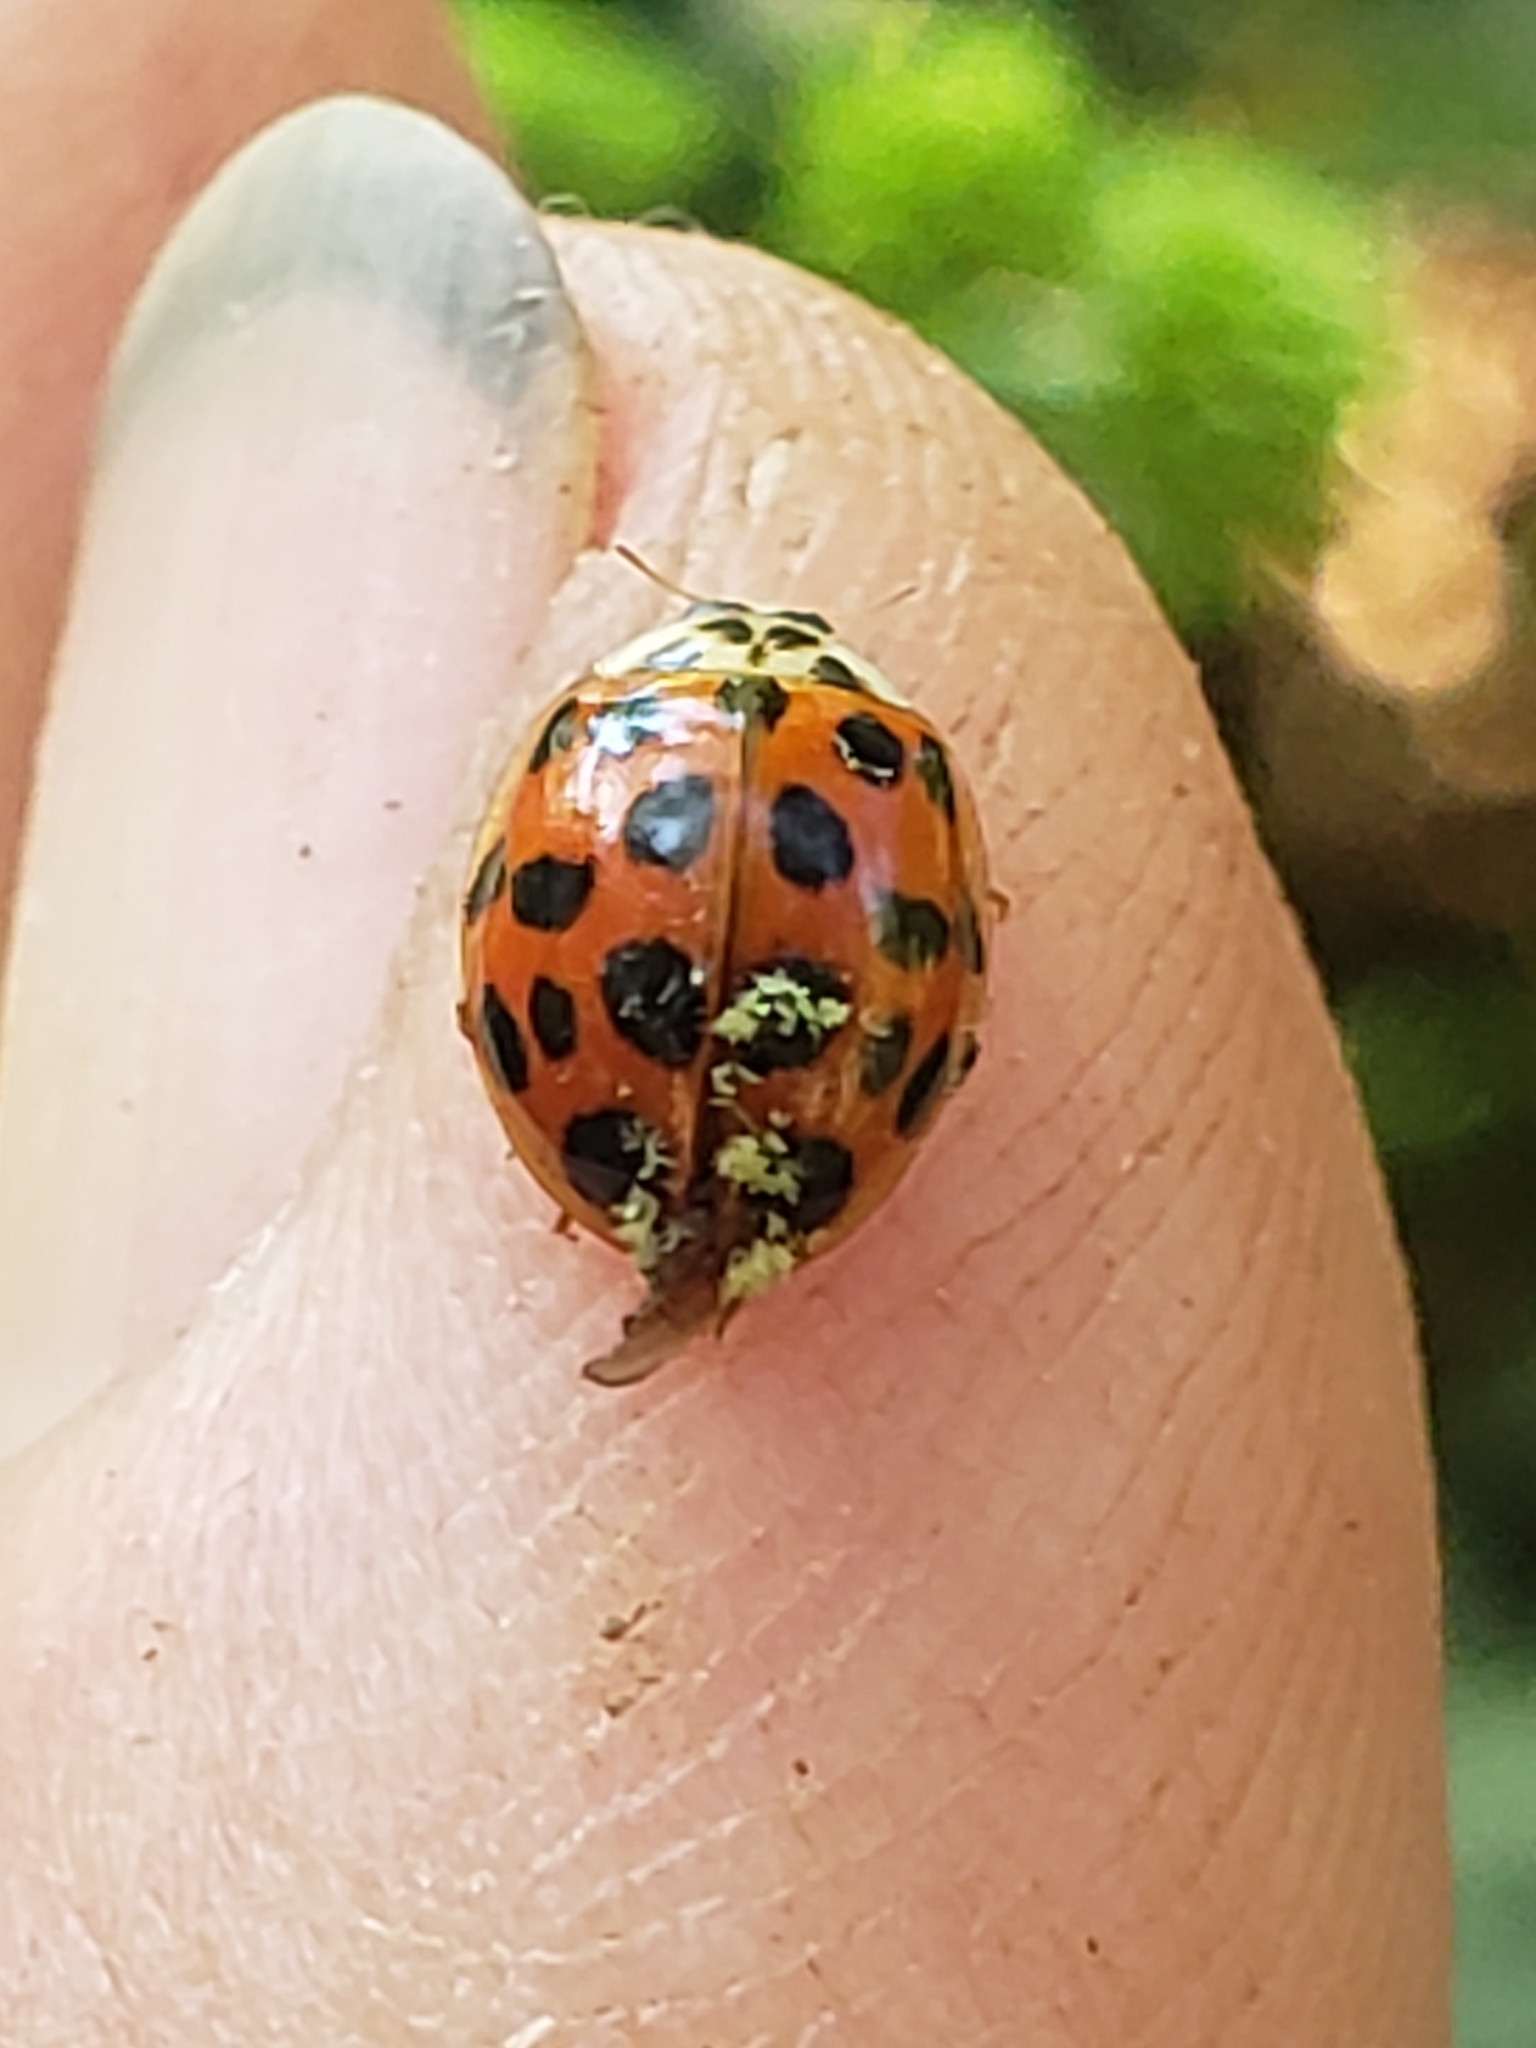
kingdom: Fungi
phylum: Ascomycota
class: Laboulbeniomycetes
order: Laboulbeniales
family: Laboulbeniaceae
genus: Hesperomyces
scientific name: Hesperomyces harmoniae
